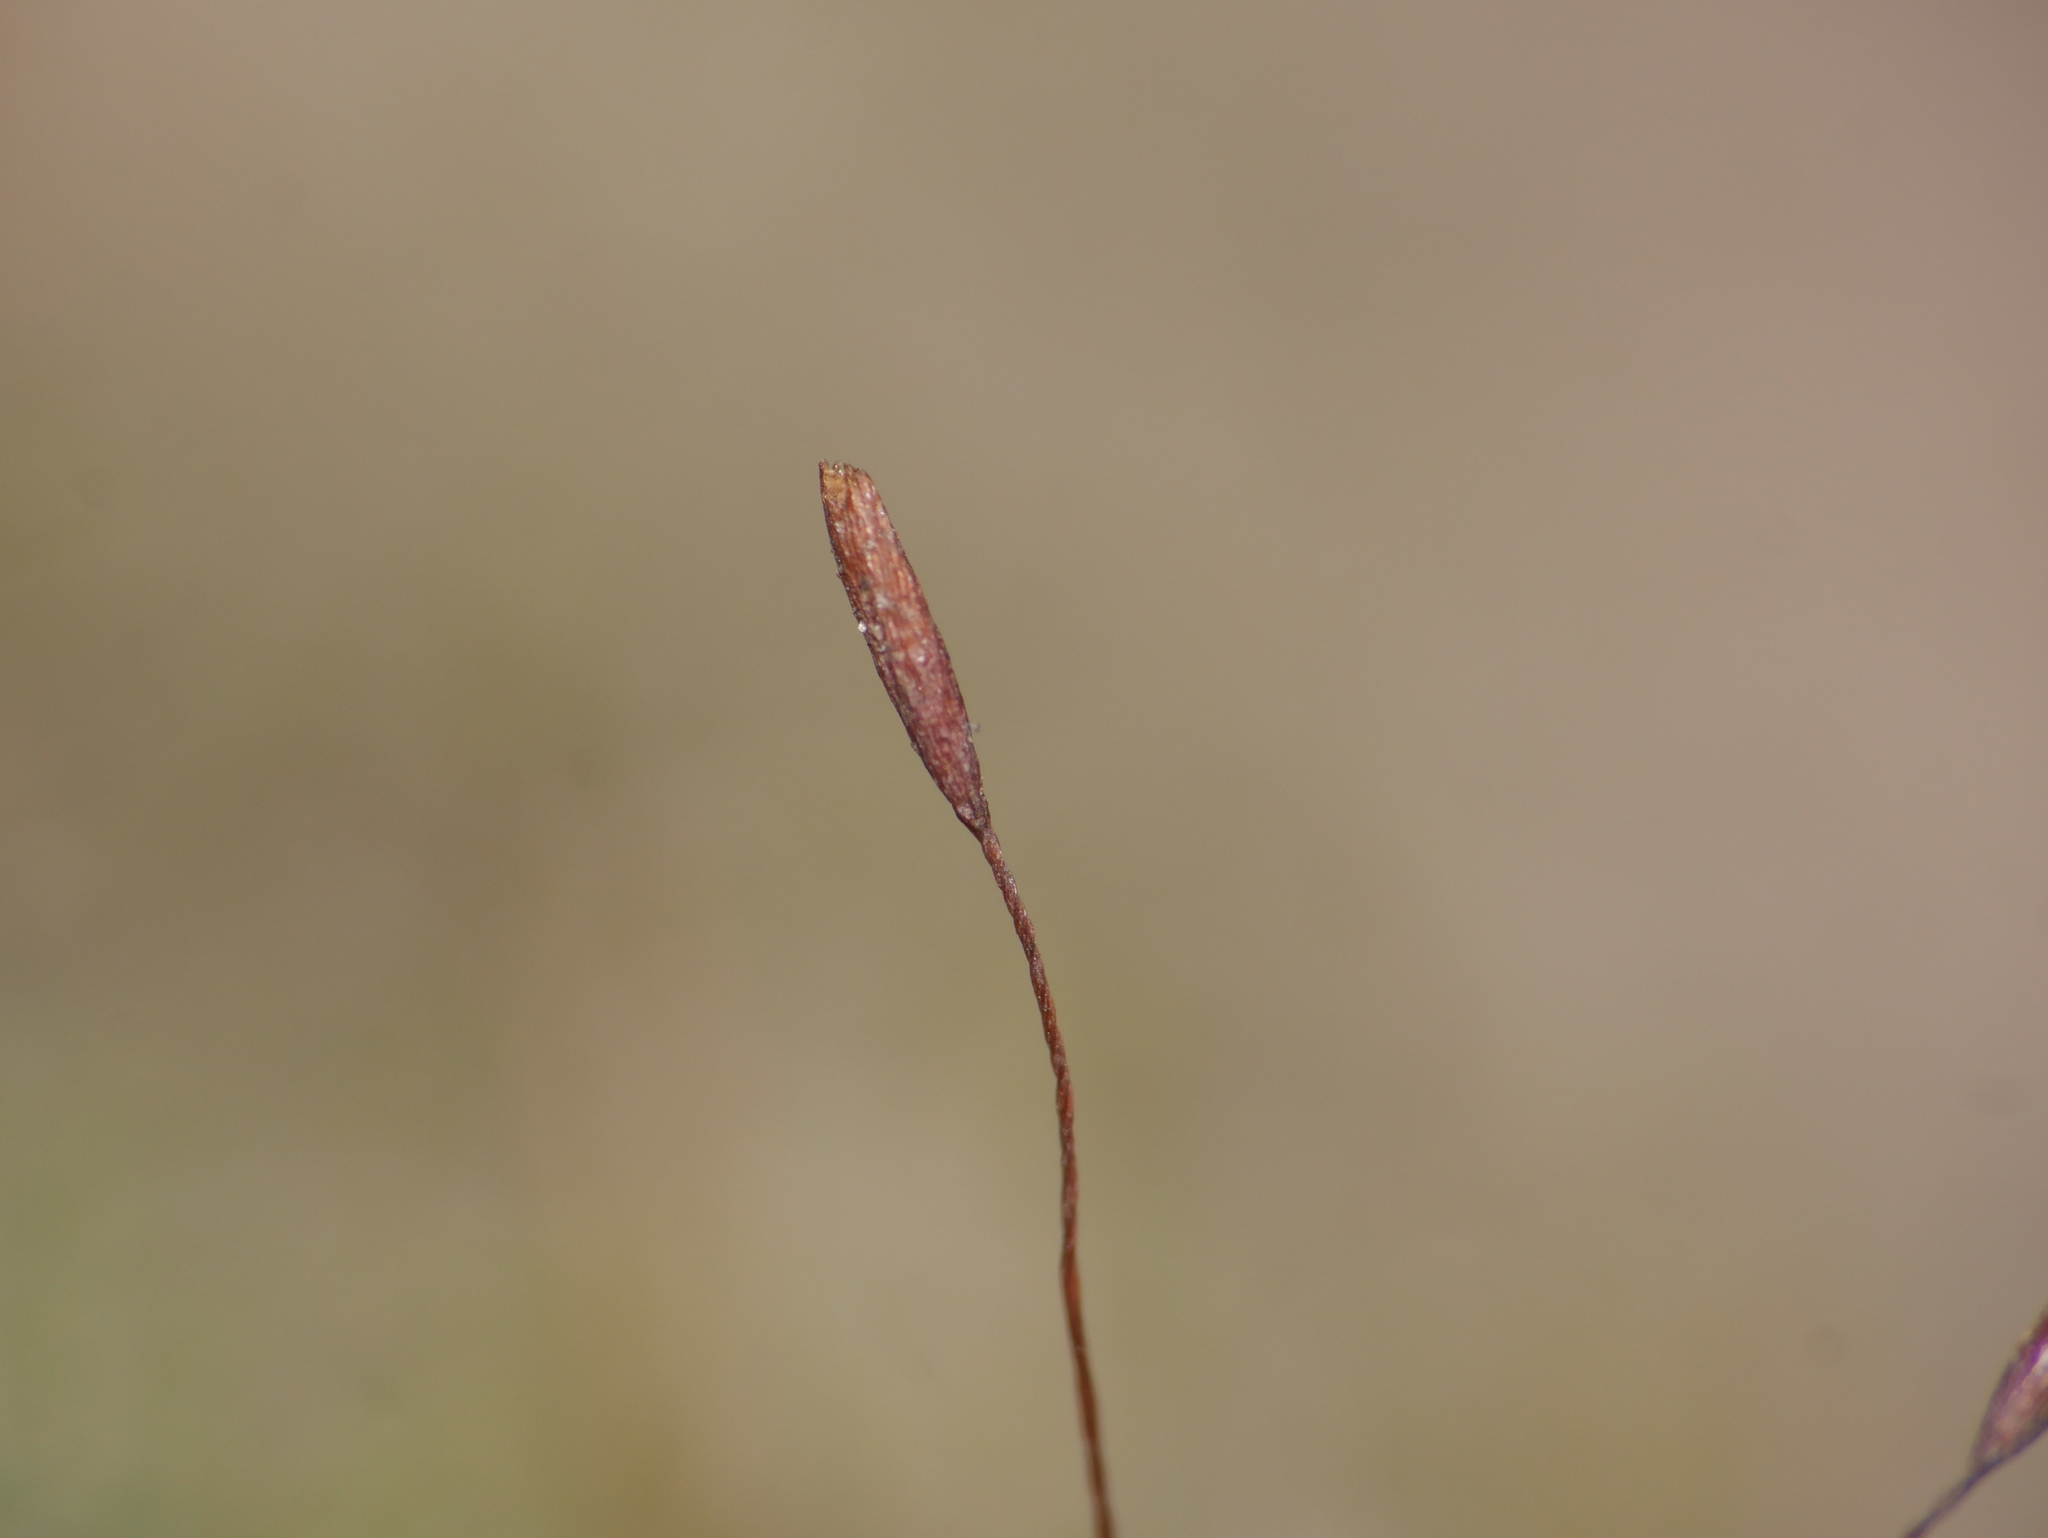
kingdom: Plantae
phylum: Bryophyta
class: Bryopsida
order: Pottiales
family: Pottiaceae
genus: Tortula
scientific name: Tortula muralis
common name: Wall screw-moss
